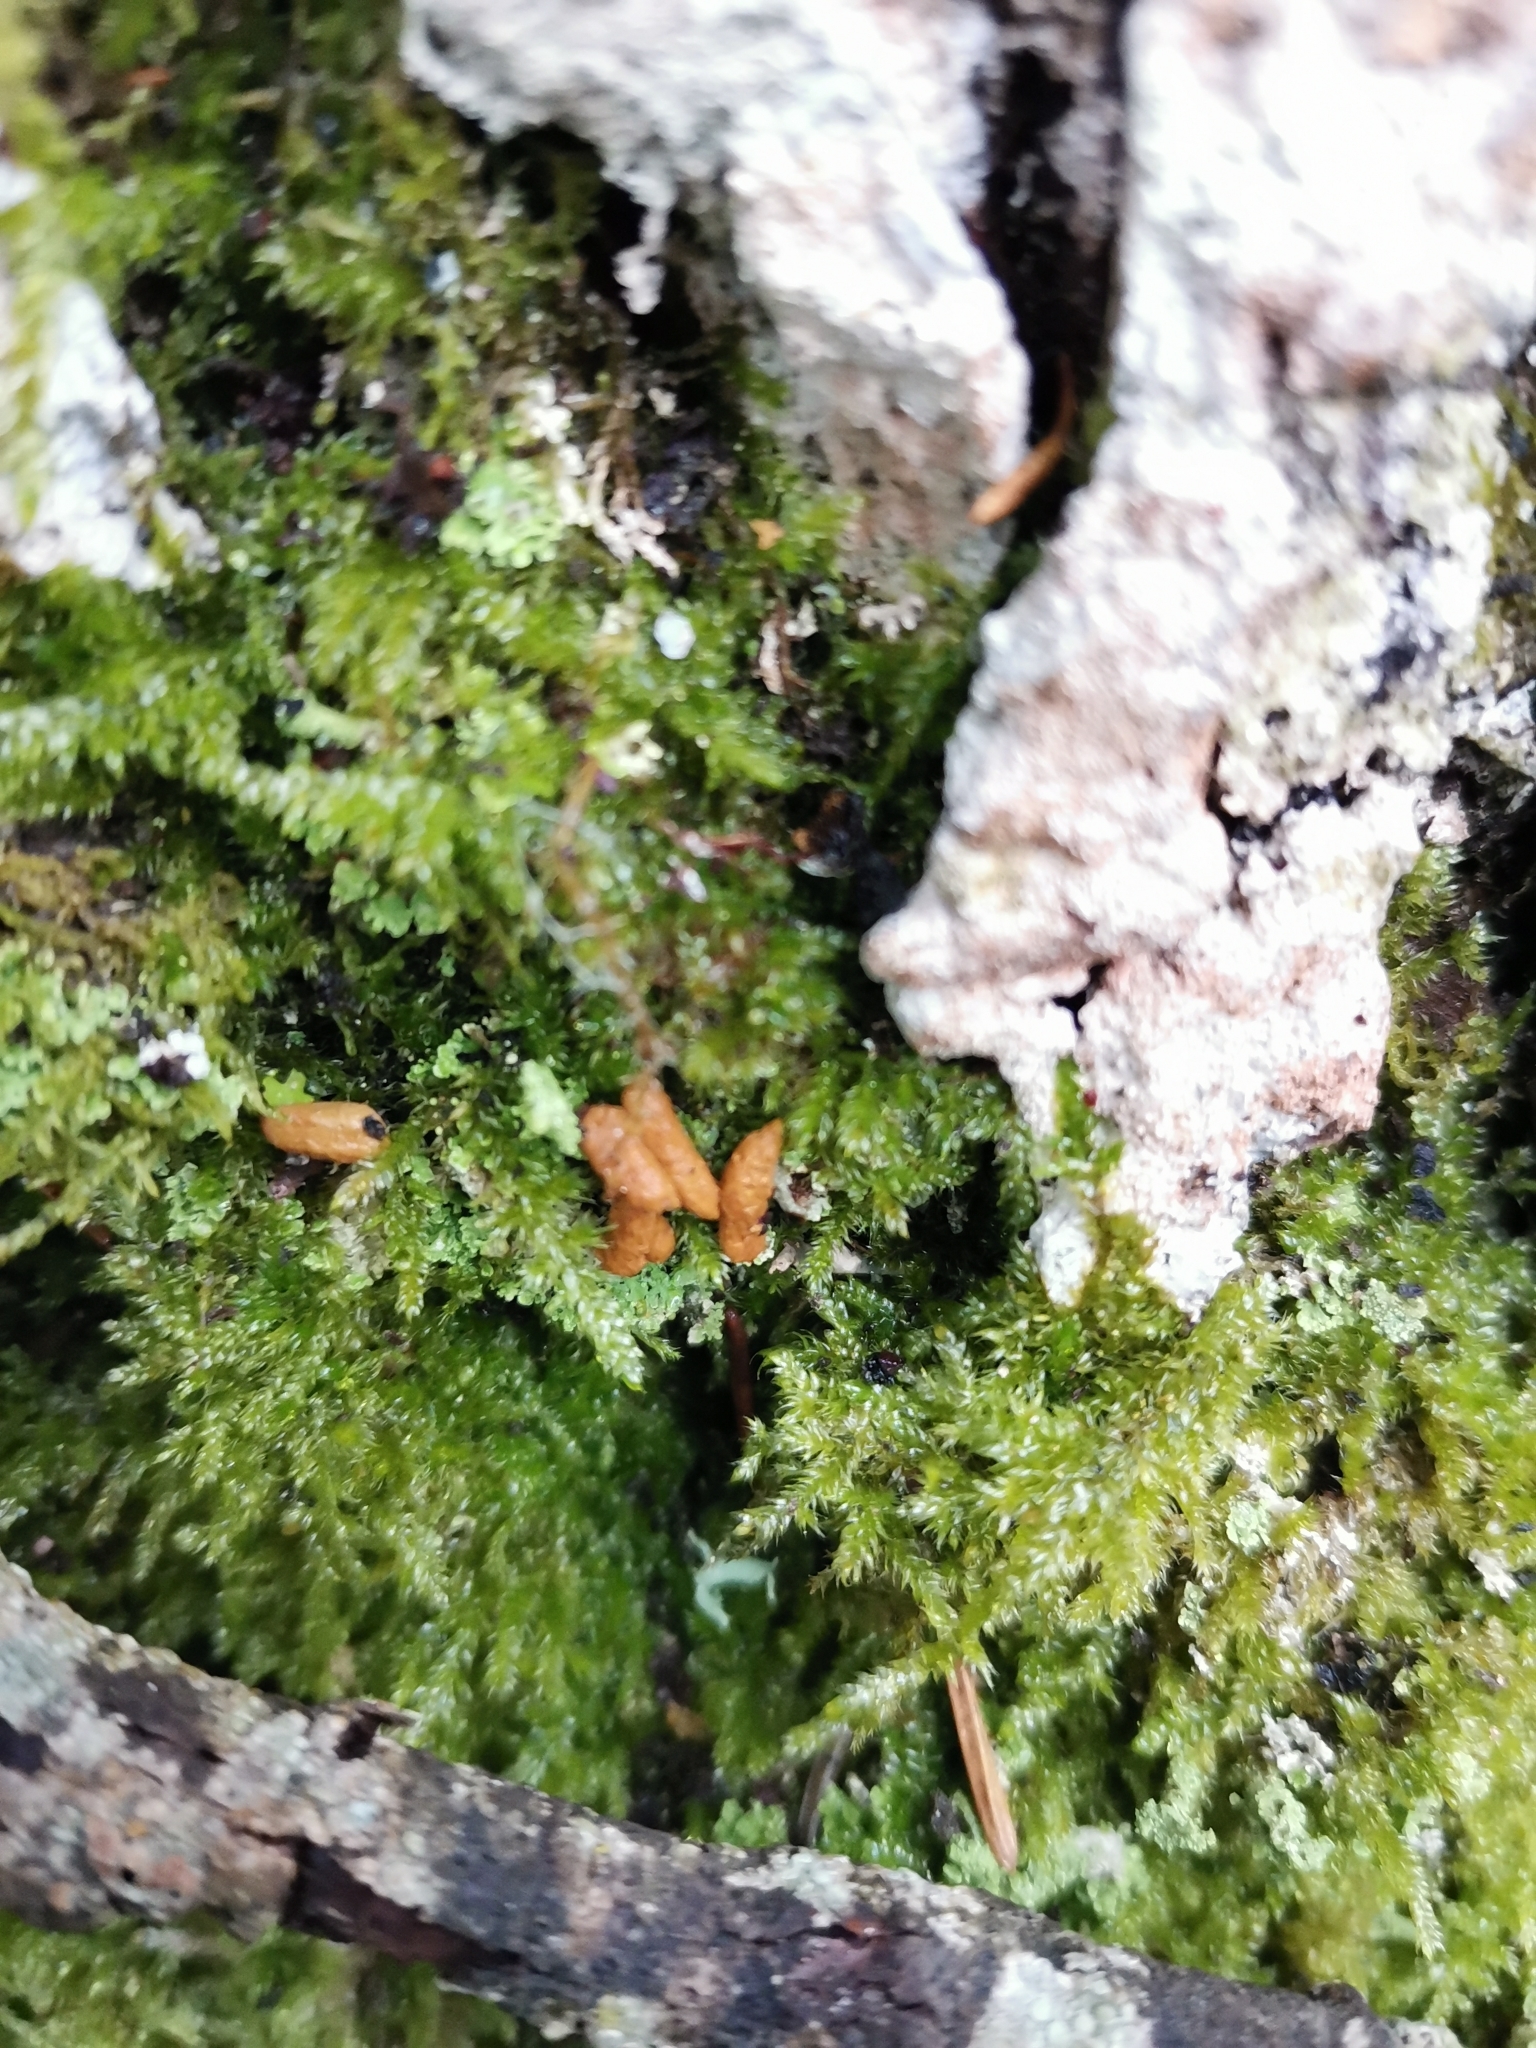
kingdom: Animalia
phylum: Chordata
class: Mammalia
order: Rodentia
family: Sciuridae
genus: Pteromys
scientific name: Pteromys volans
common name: Siberian flying squirrel
